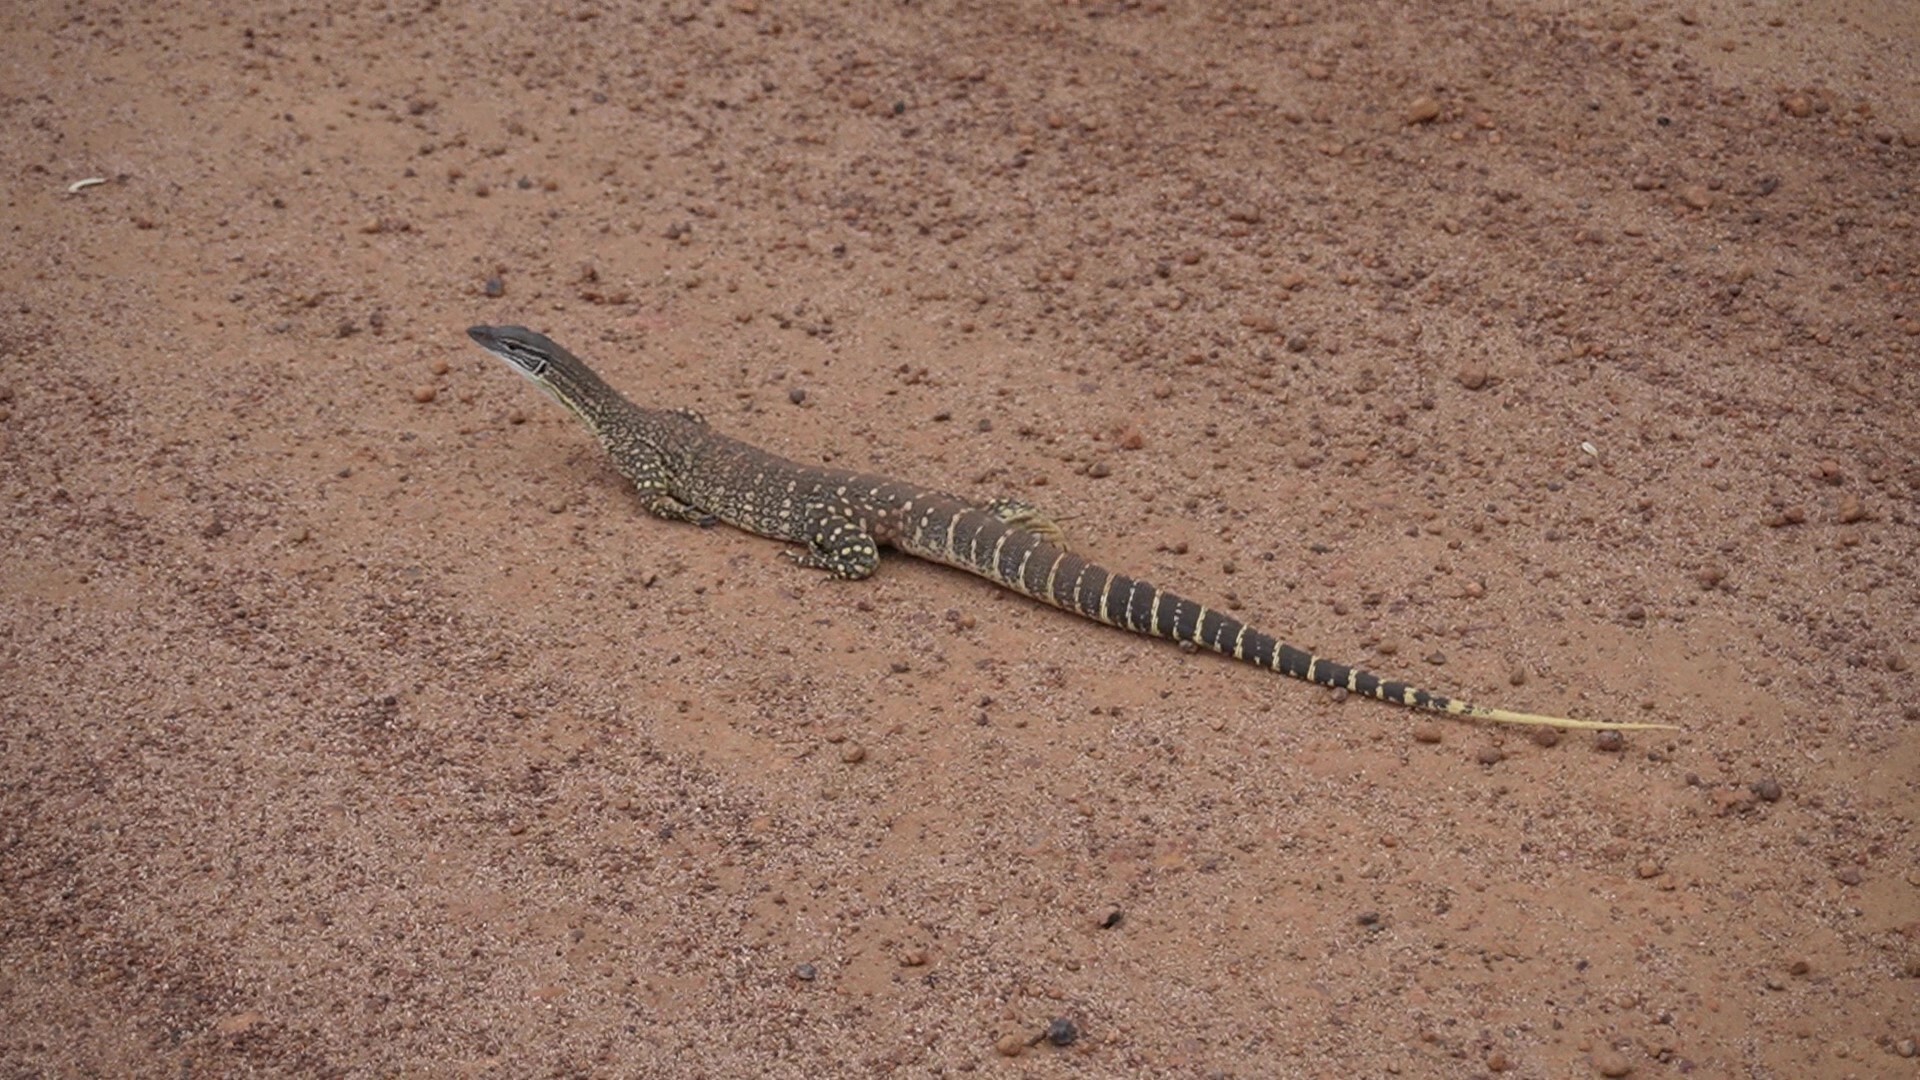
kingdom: Animalia
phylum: Chordata
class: Squamata
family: Varanidae
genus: Varanus
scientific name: Varanus gouldii
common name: Gould's goanna
